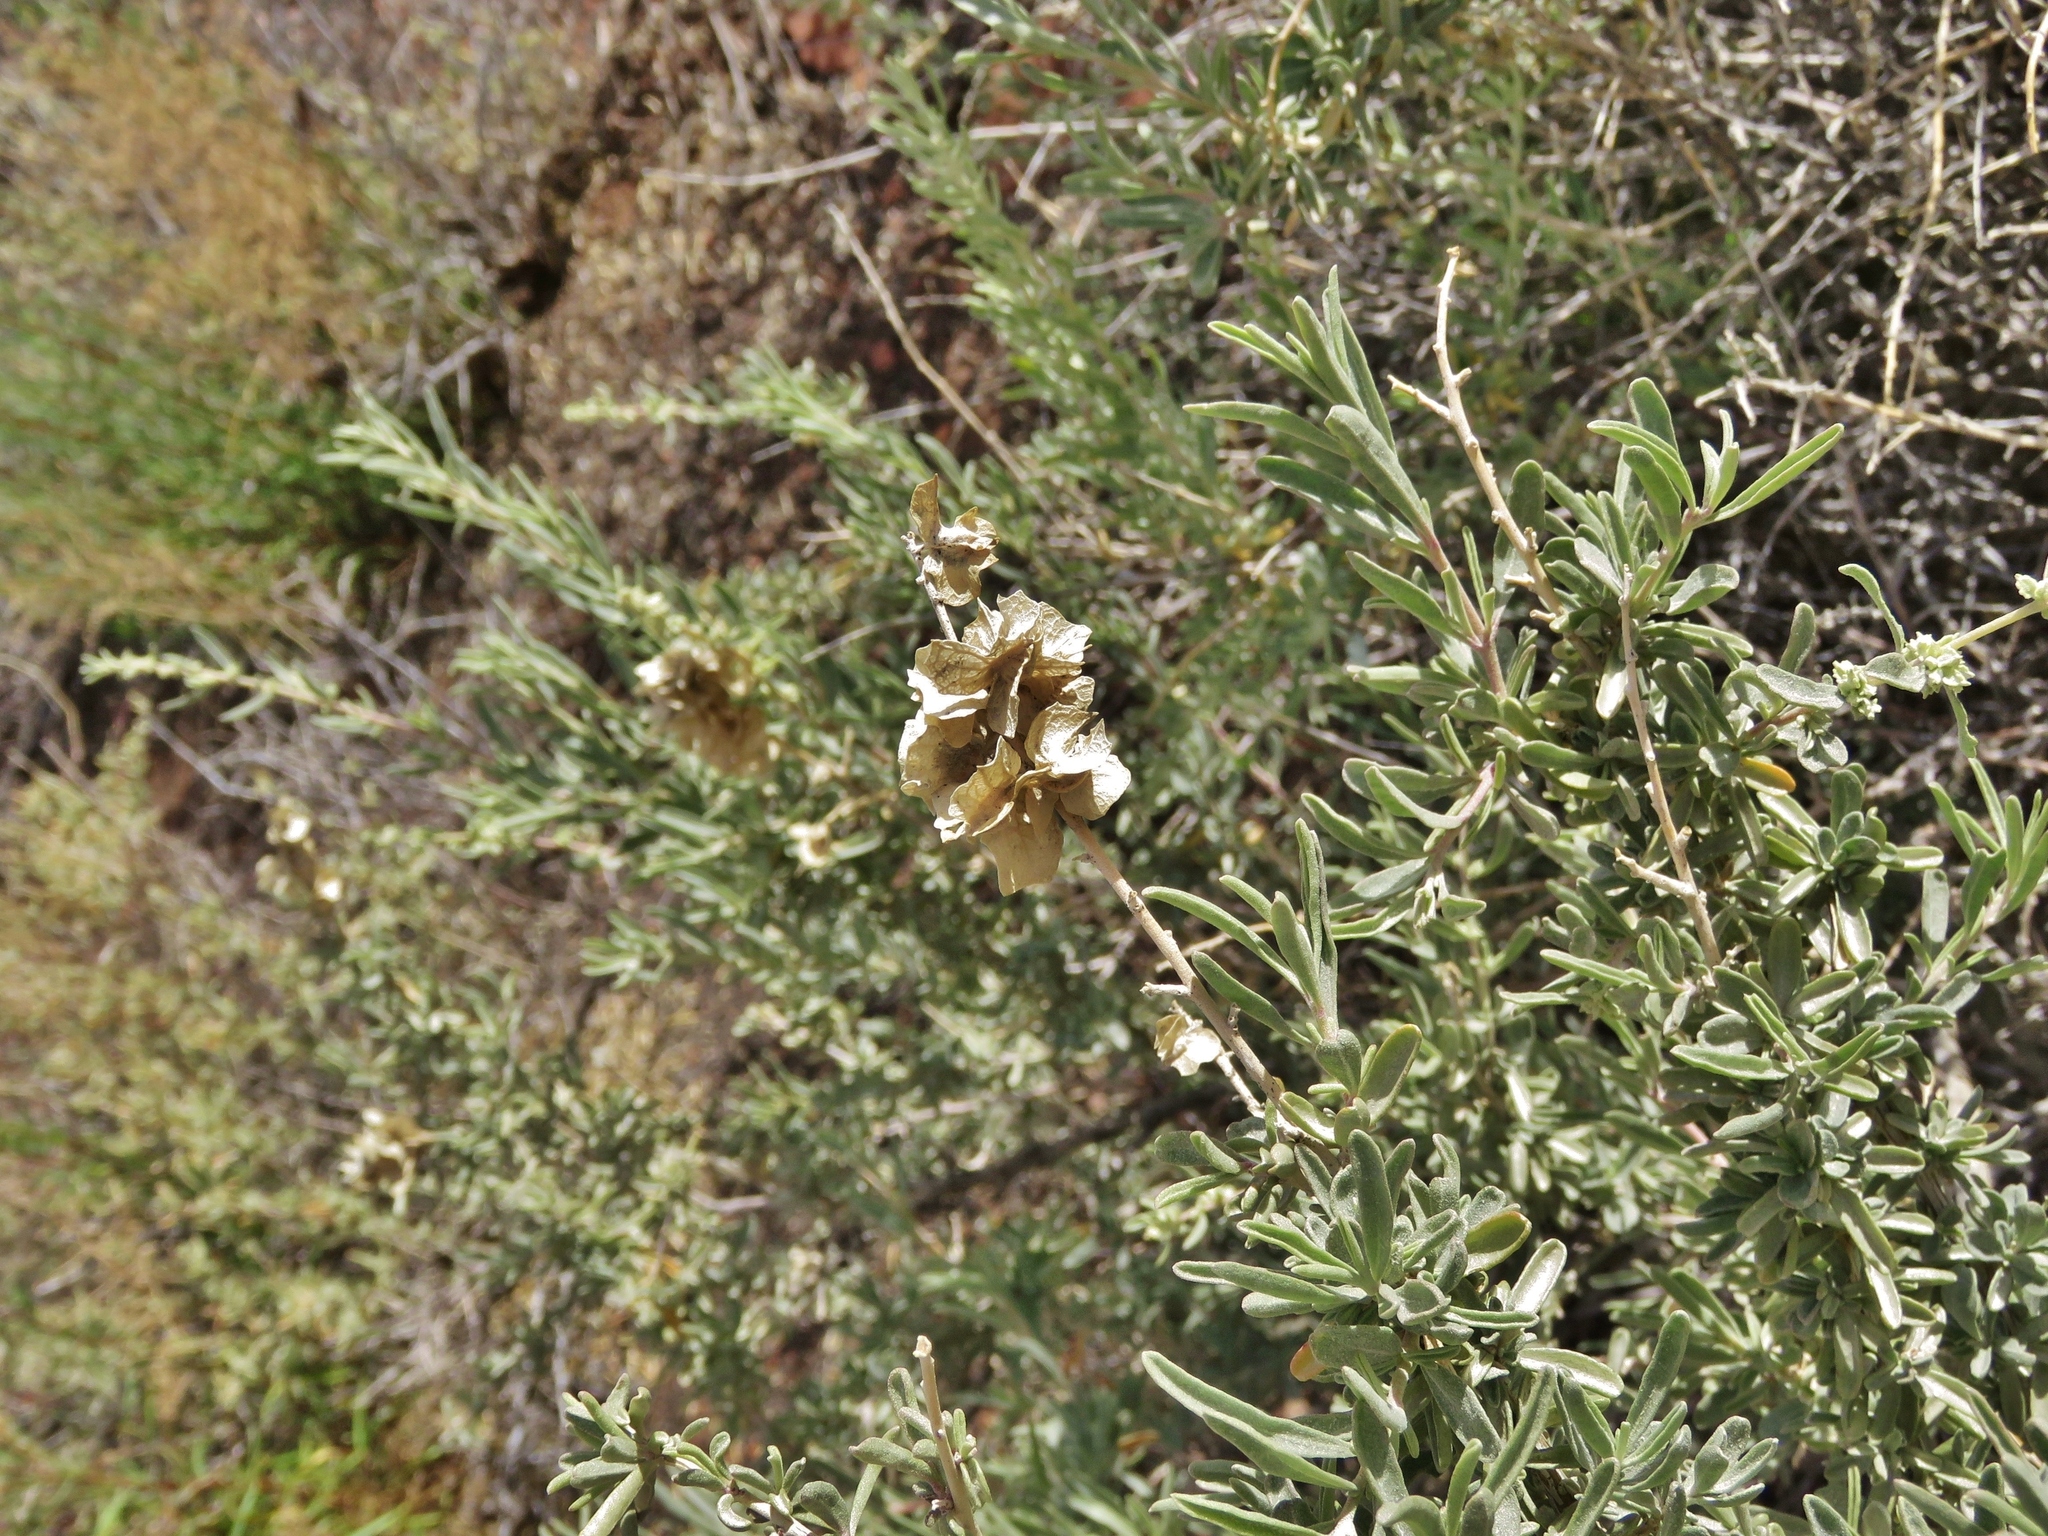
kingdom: Plantae
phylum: Tracheophyta
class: Magnoliopsida
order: Caryophyllales
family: Amaranthaceae
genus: Atriplex
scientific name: Atriplex canescens
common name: Four-wing saltbush
